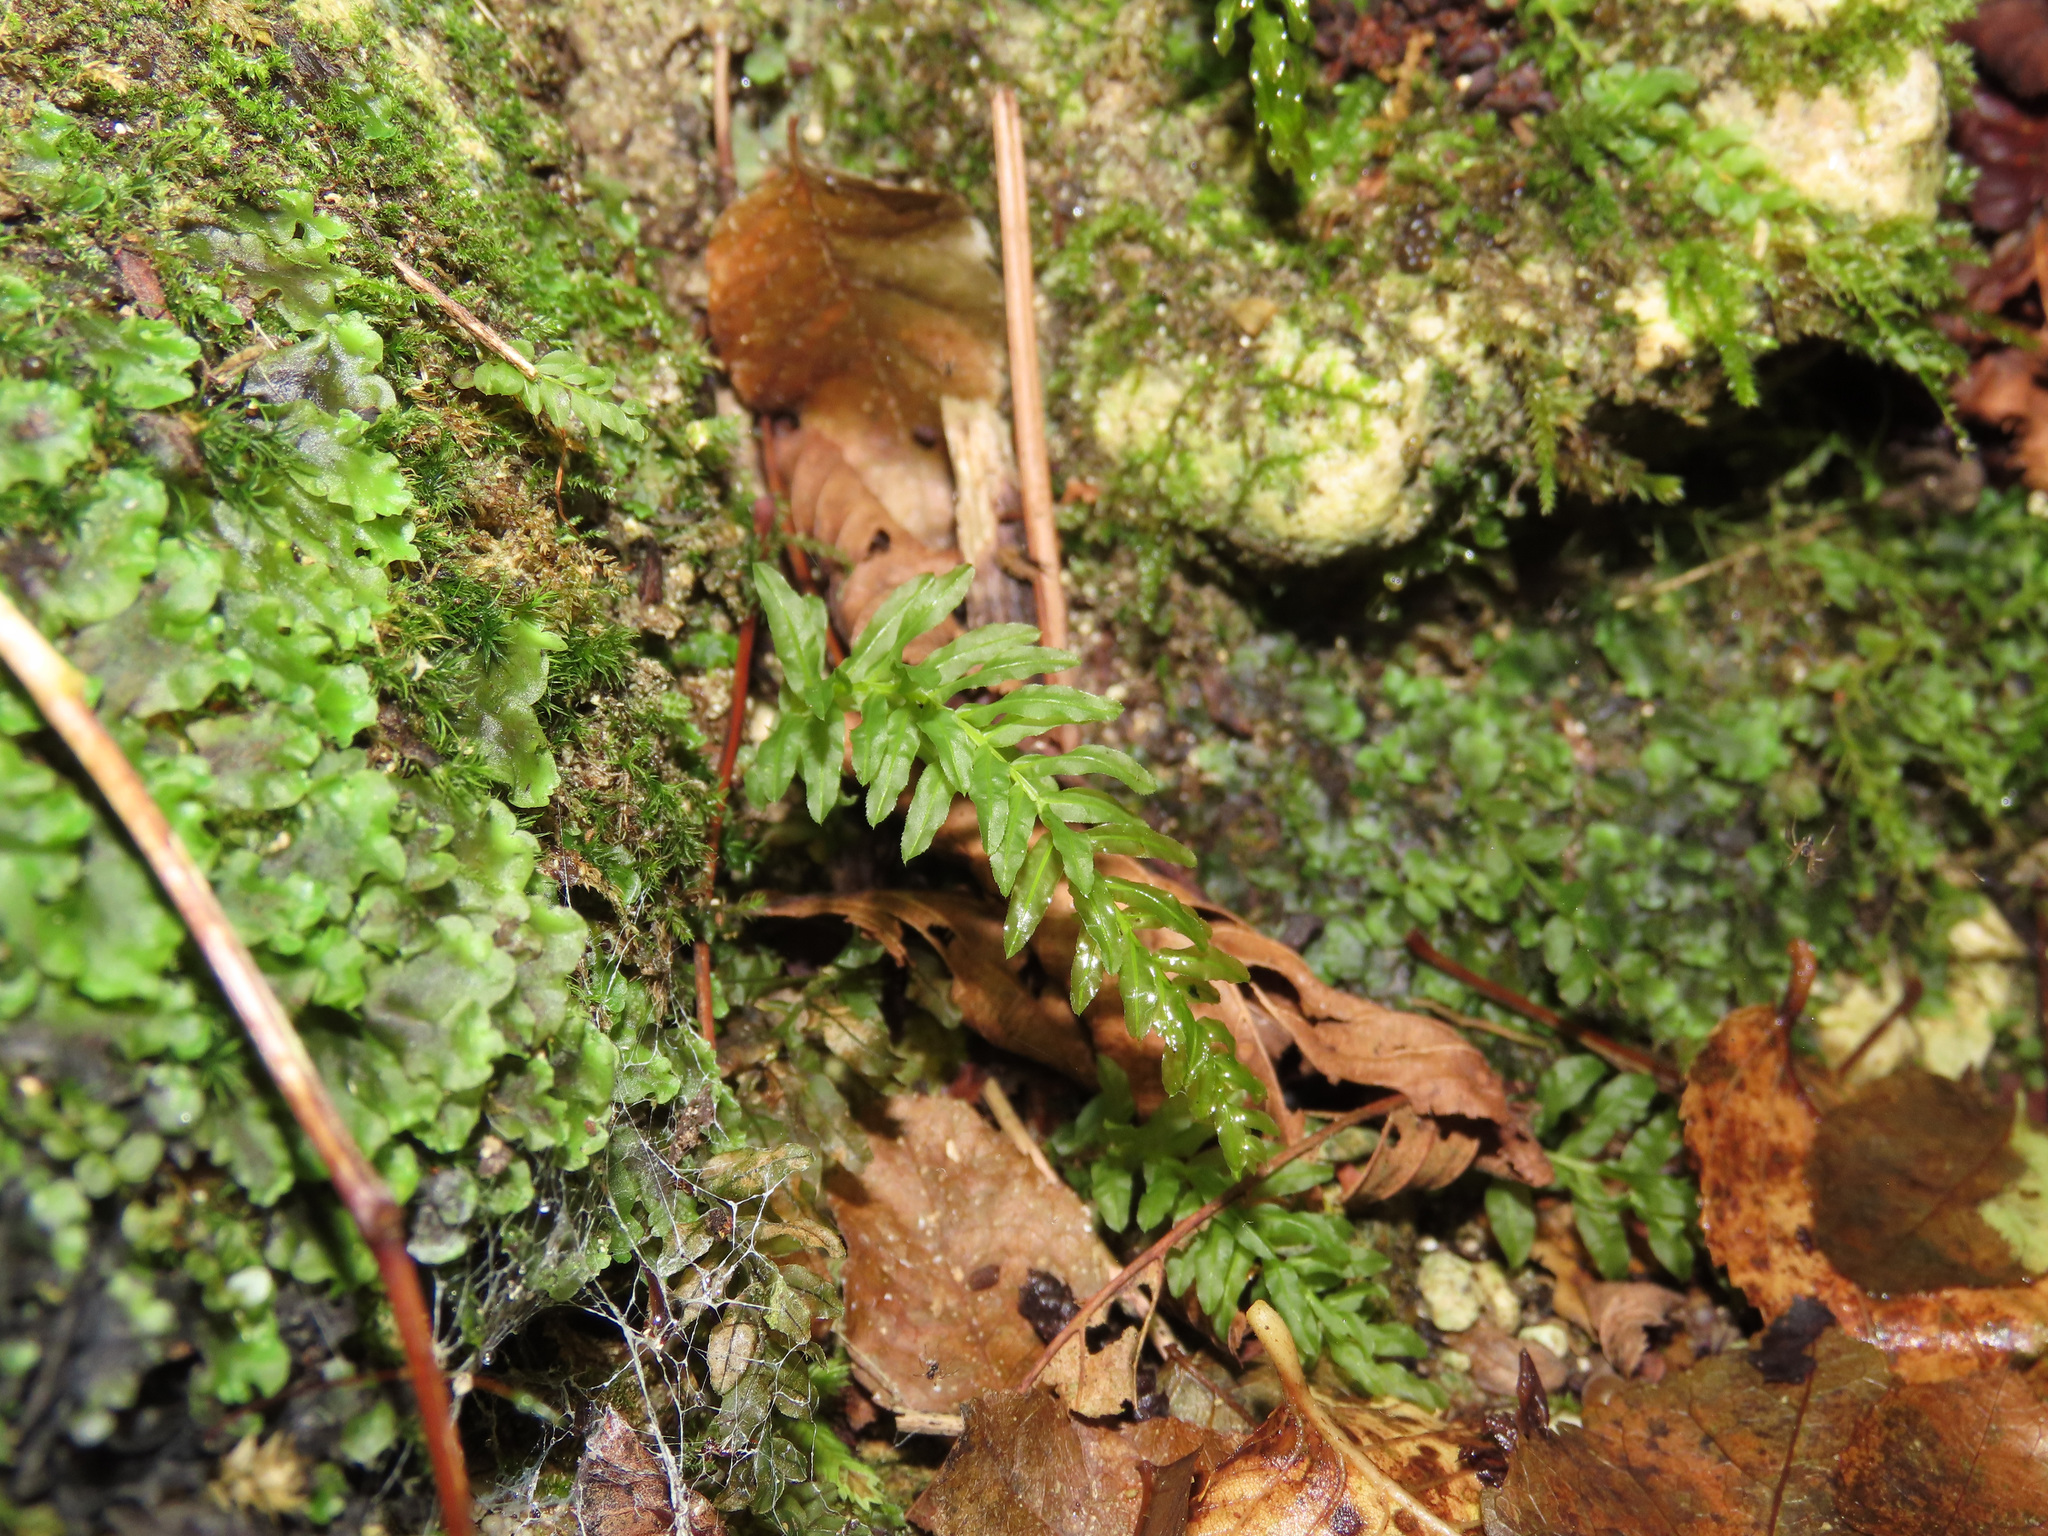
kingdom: Plantae
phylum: Bryophyta
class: Bryopsida
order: Bryales
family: Mniaceae
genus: Plagiomnium
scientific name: Plagiomnium undulatum
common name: Hart's-tongue thyme-moss
